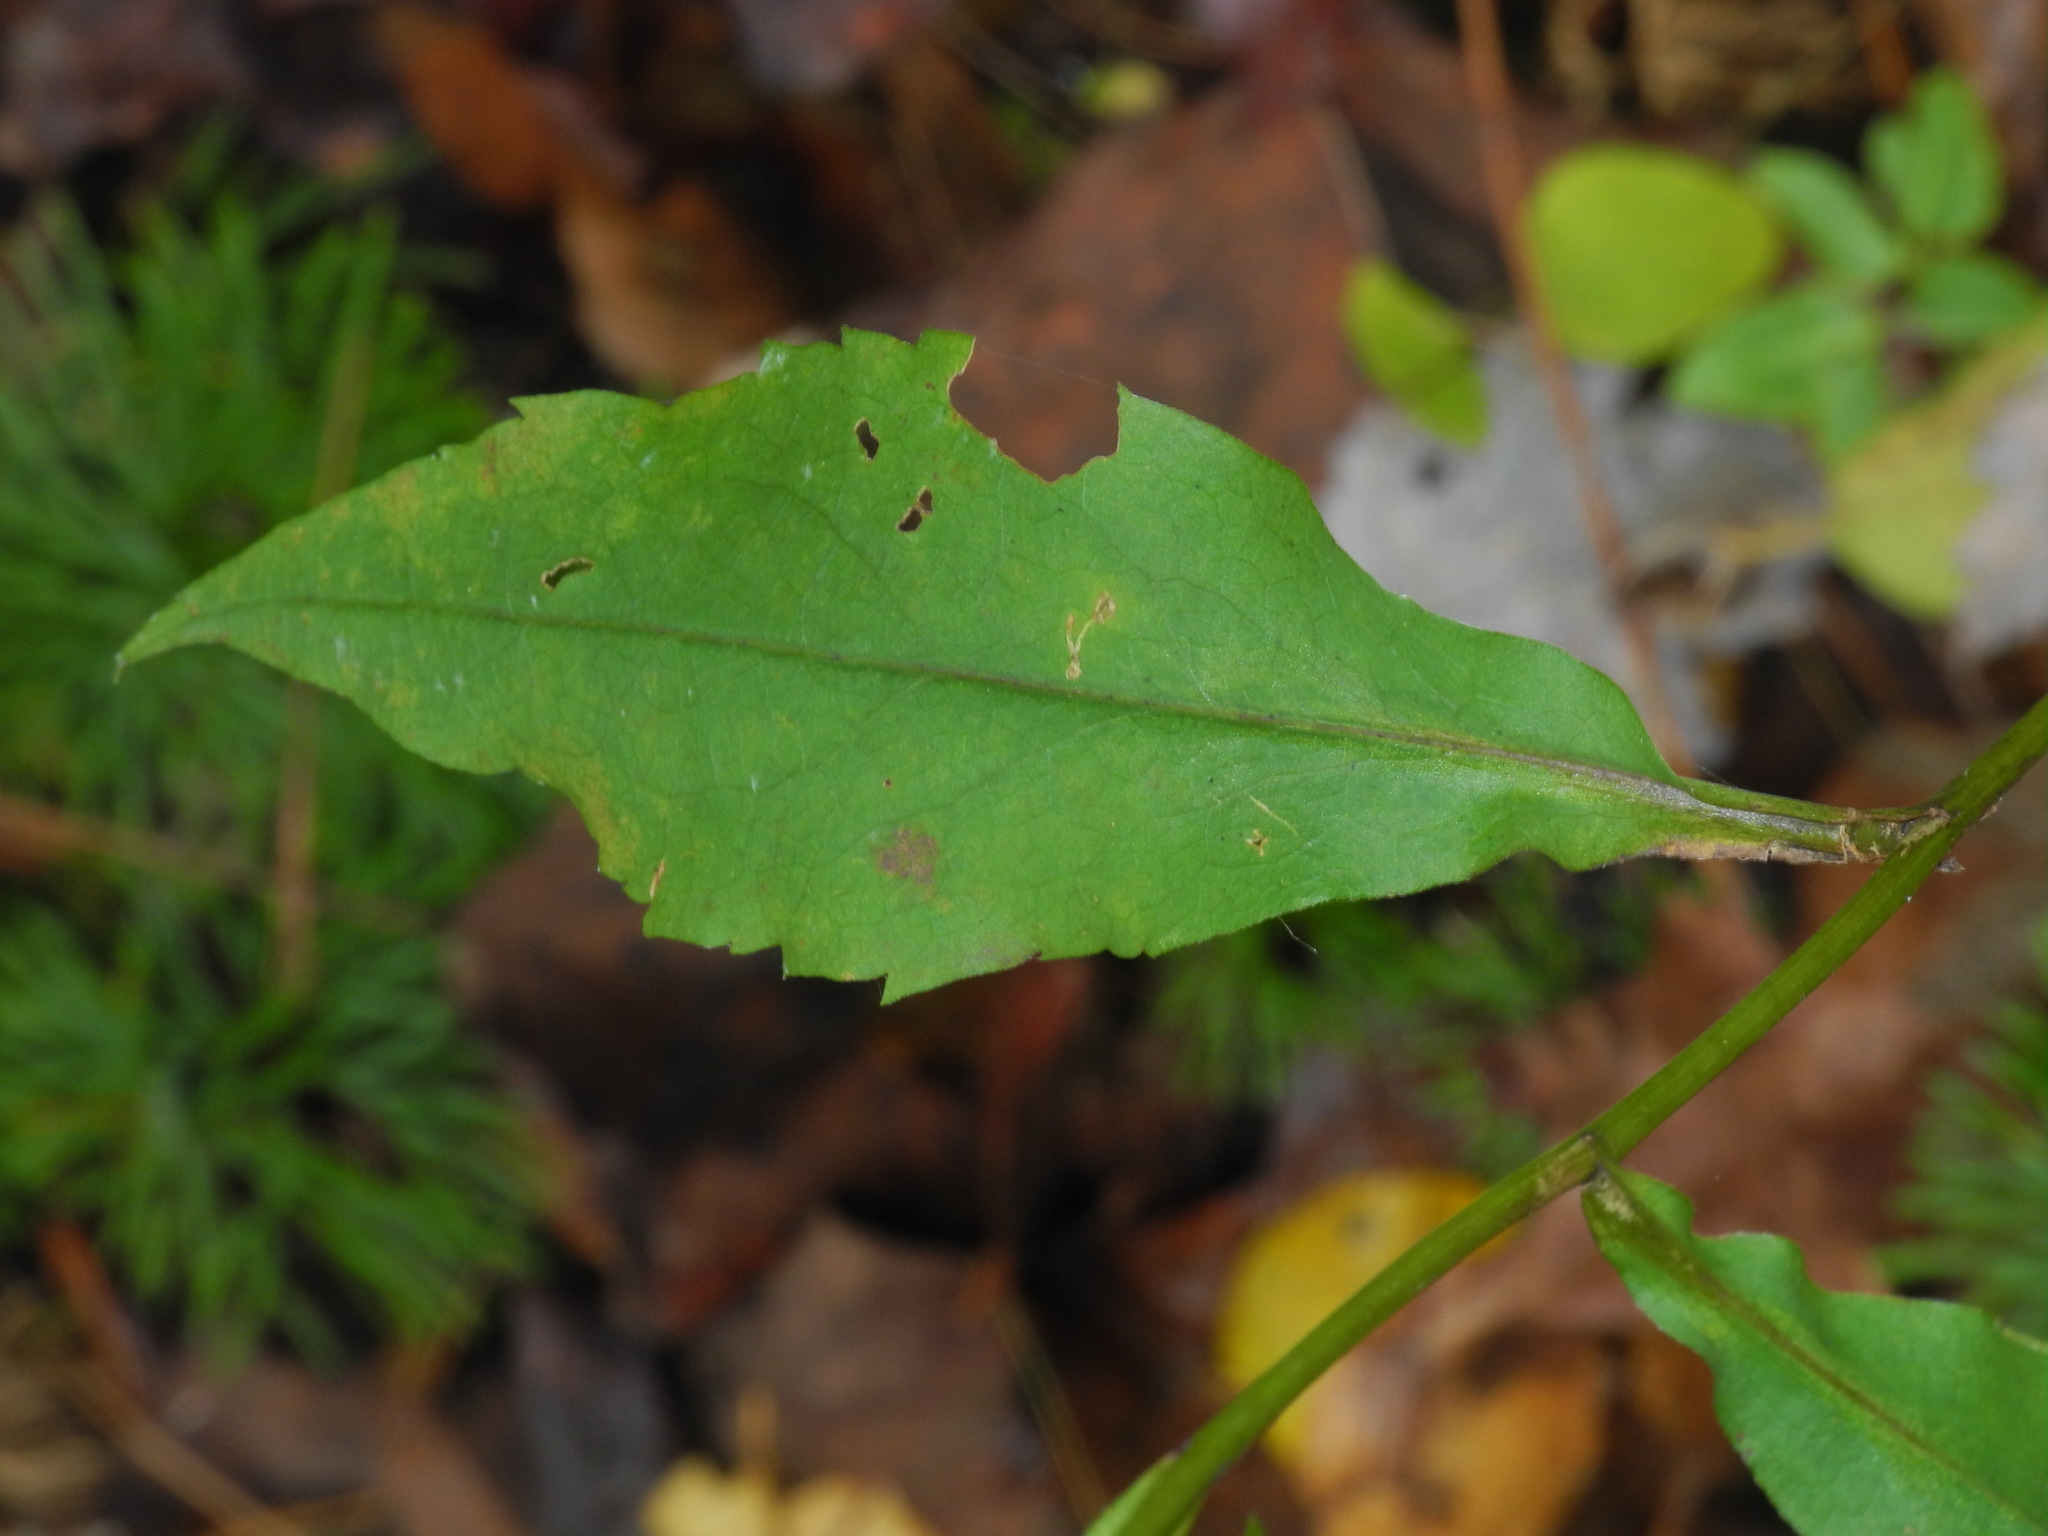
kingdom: Plantae
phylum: Tracheophyta
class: Magnoliopsida
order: Asterales
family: Asteraceae
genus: Symphyotrichum
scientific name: Symphyotrichum retroflexum
